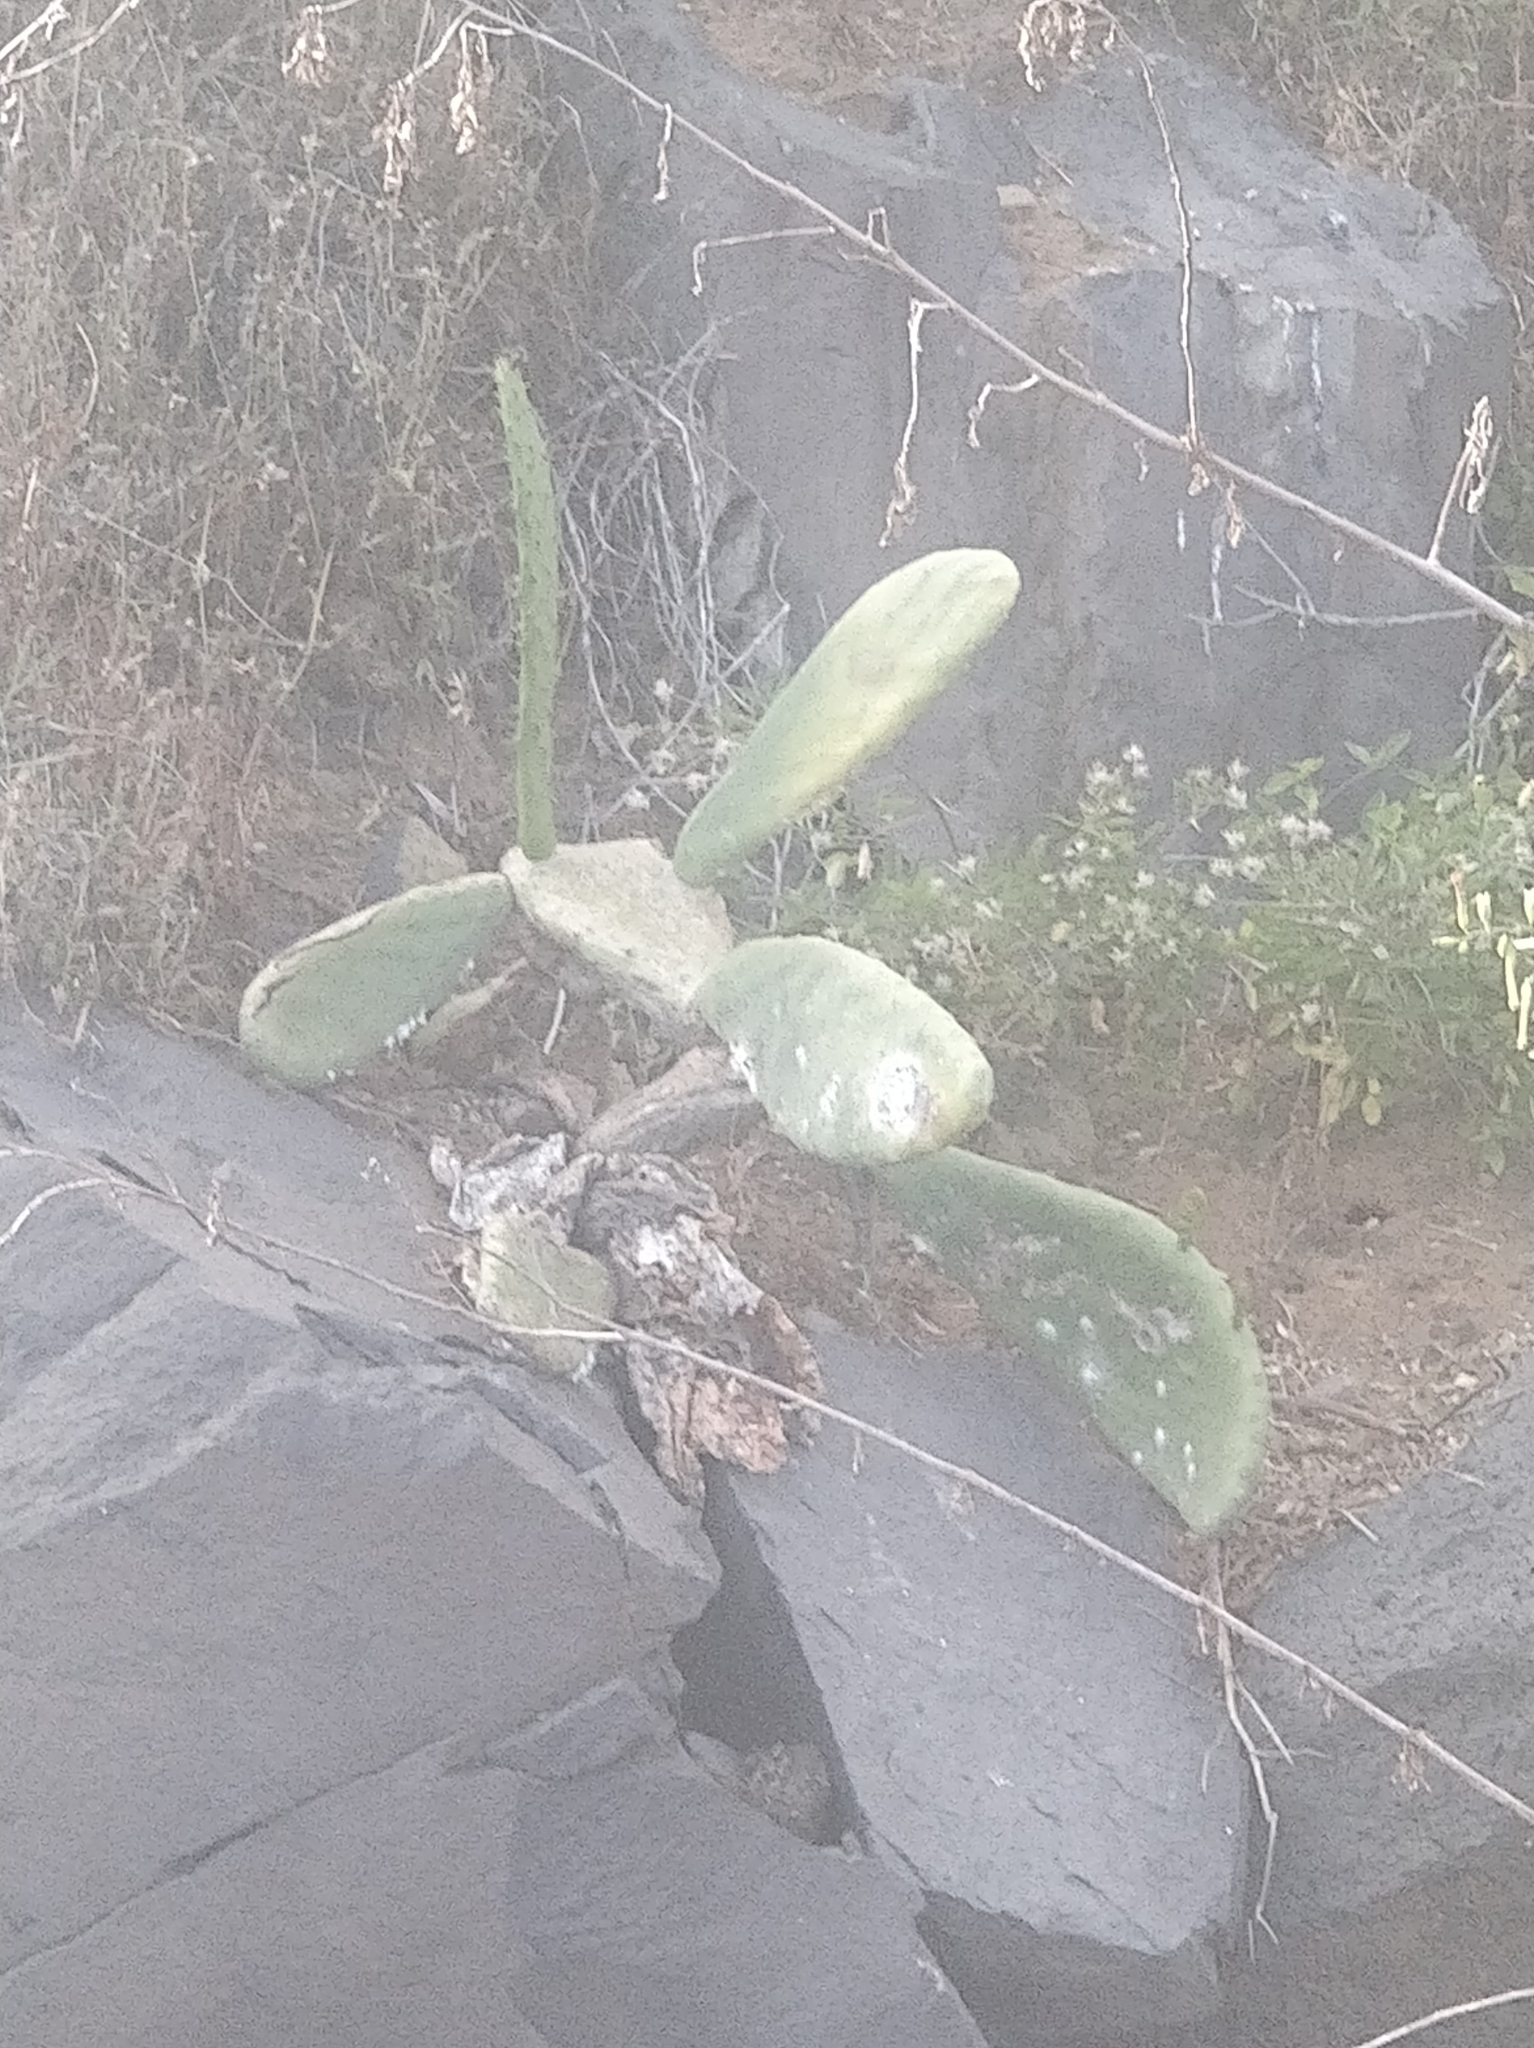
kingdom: Plantae
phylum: Tracheophyta
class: Magnoliopsida
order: Caryophyllales
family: Cactaceae
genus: Opuntia
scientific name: Opuntia ficus-indica
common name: Barbary fig
